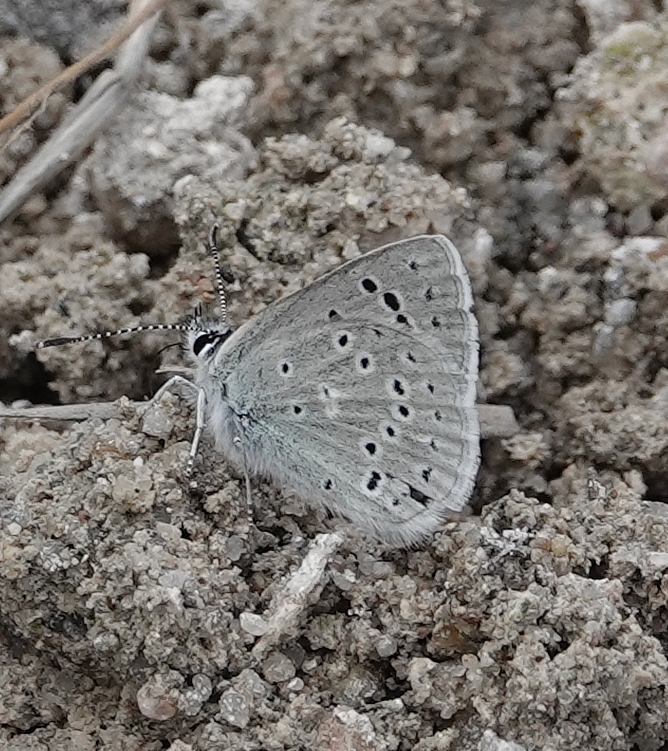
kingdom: Animalia
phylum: Arthropoda
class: Insecta
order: Lepidoptera
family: Lycaenidae
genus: Icaricia
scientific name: Icaricia icarioides
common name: Boisduval's blue
